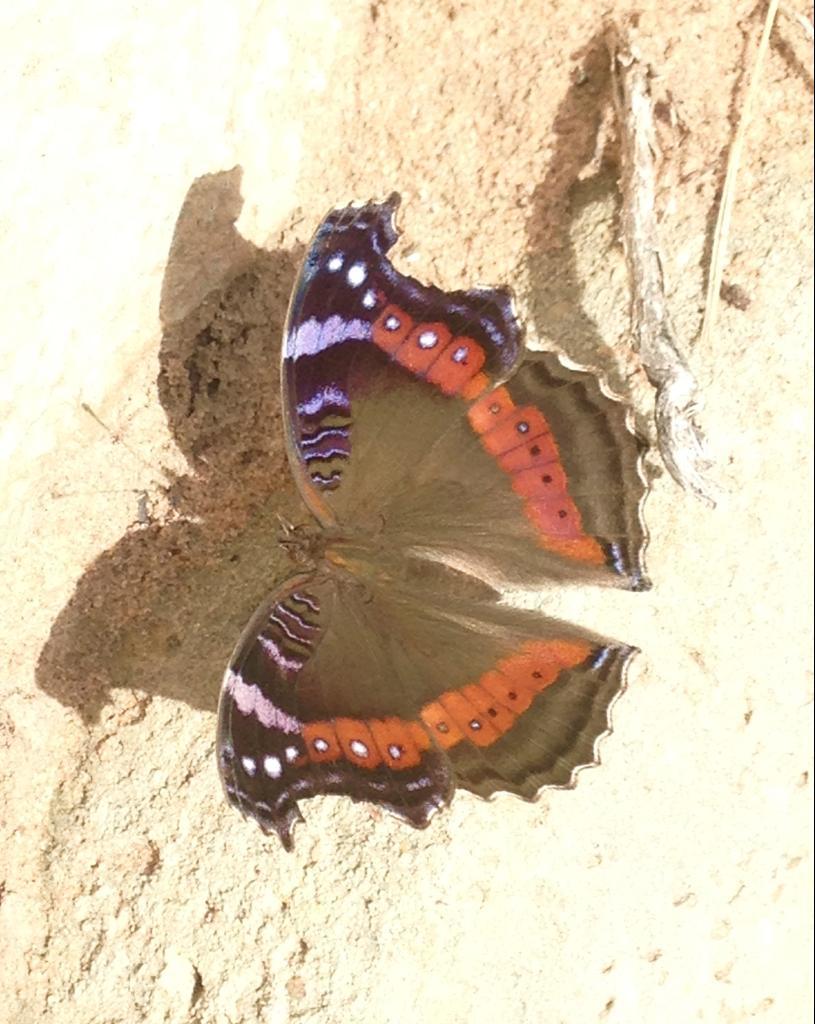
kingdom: Animalia
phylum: Arthropoda
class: Insecta
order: Lepidoptera
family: Nymphalidae
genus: Junonia
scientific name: Junonia archesia
